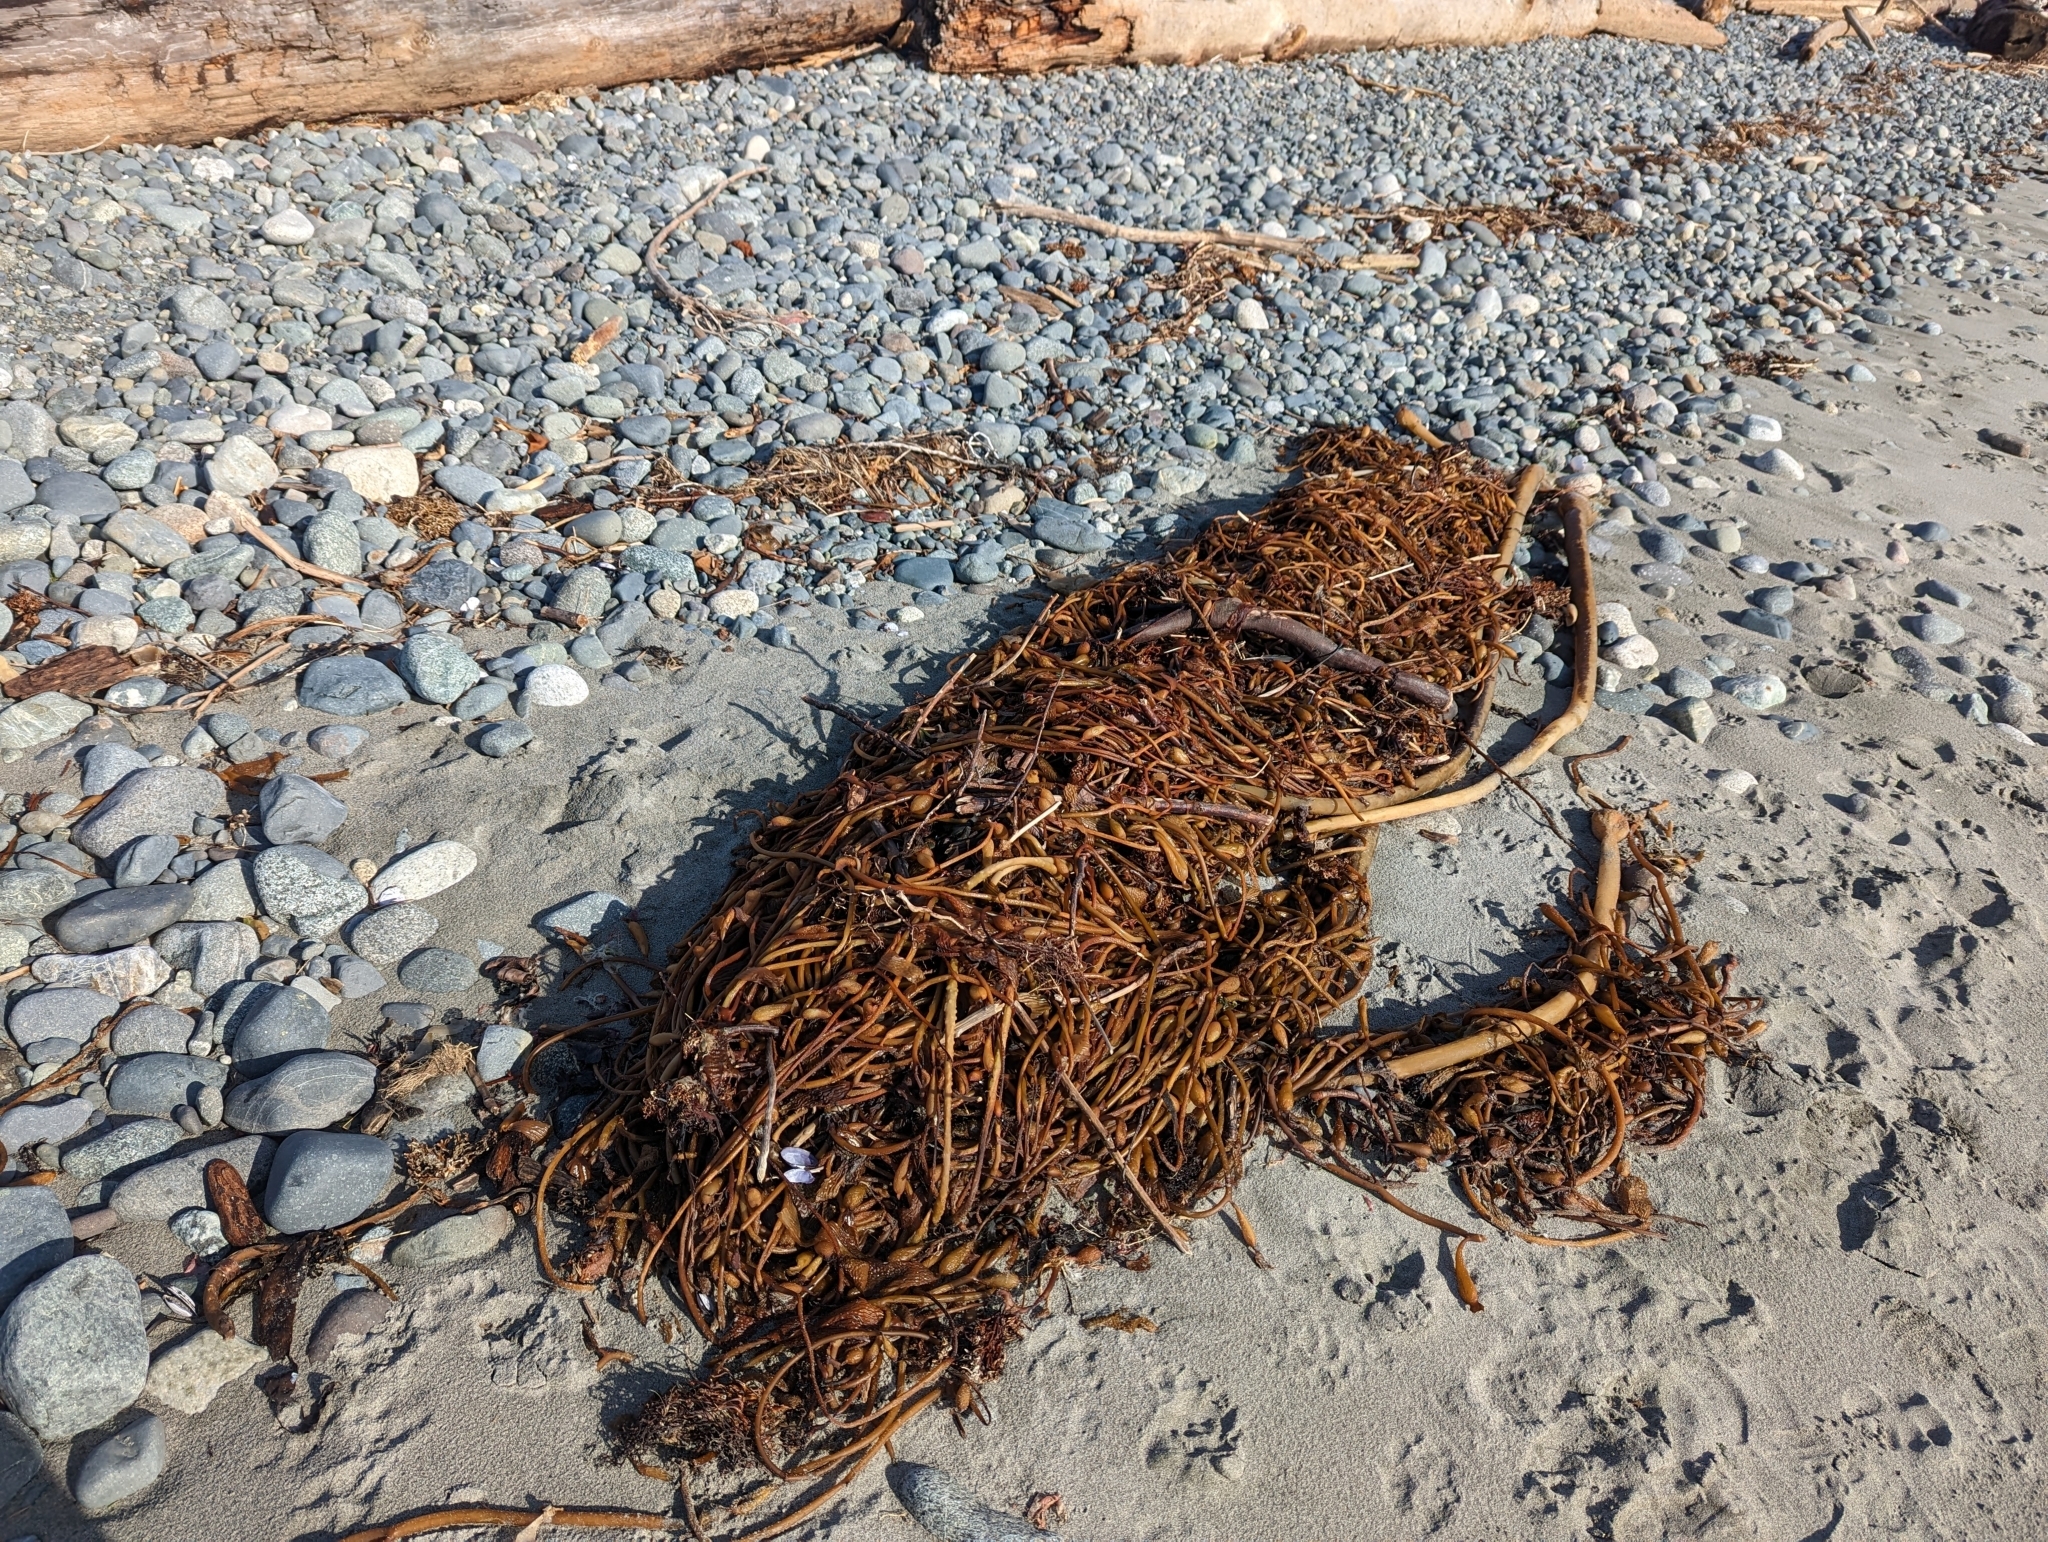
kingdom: Chromista
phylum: Ochrophyta
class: Phaeophyceae
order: Laminariales
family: Laminariaceae
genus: Macrocystis
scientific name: Macrocystis pyrifera
